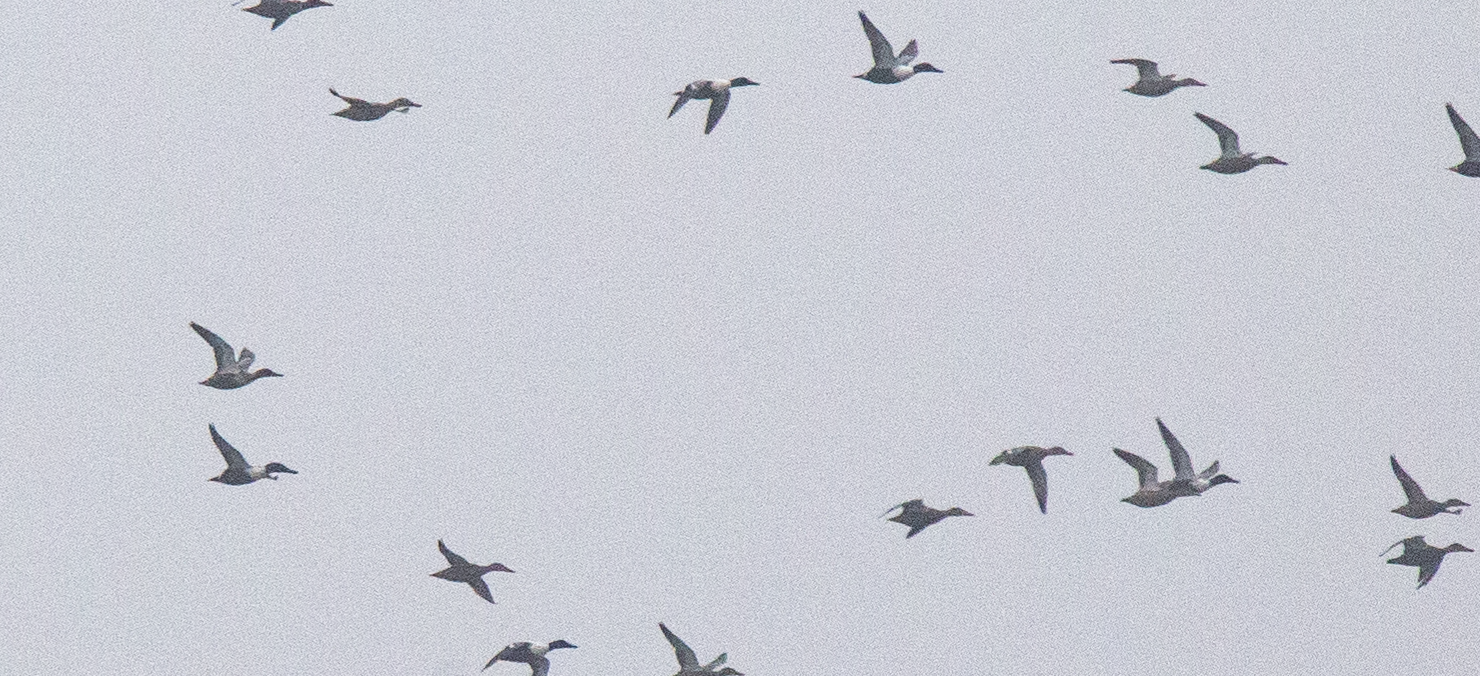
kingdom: Animalia
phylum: Chordata
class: Aves
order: Anseriformes
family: Anatidae
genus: Spatula
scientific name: Spatula clypeata
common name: Northern shoveler
